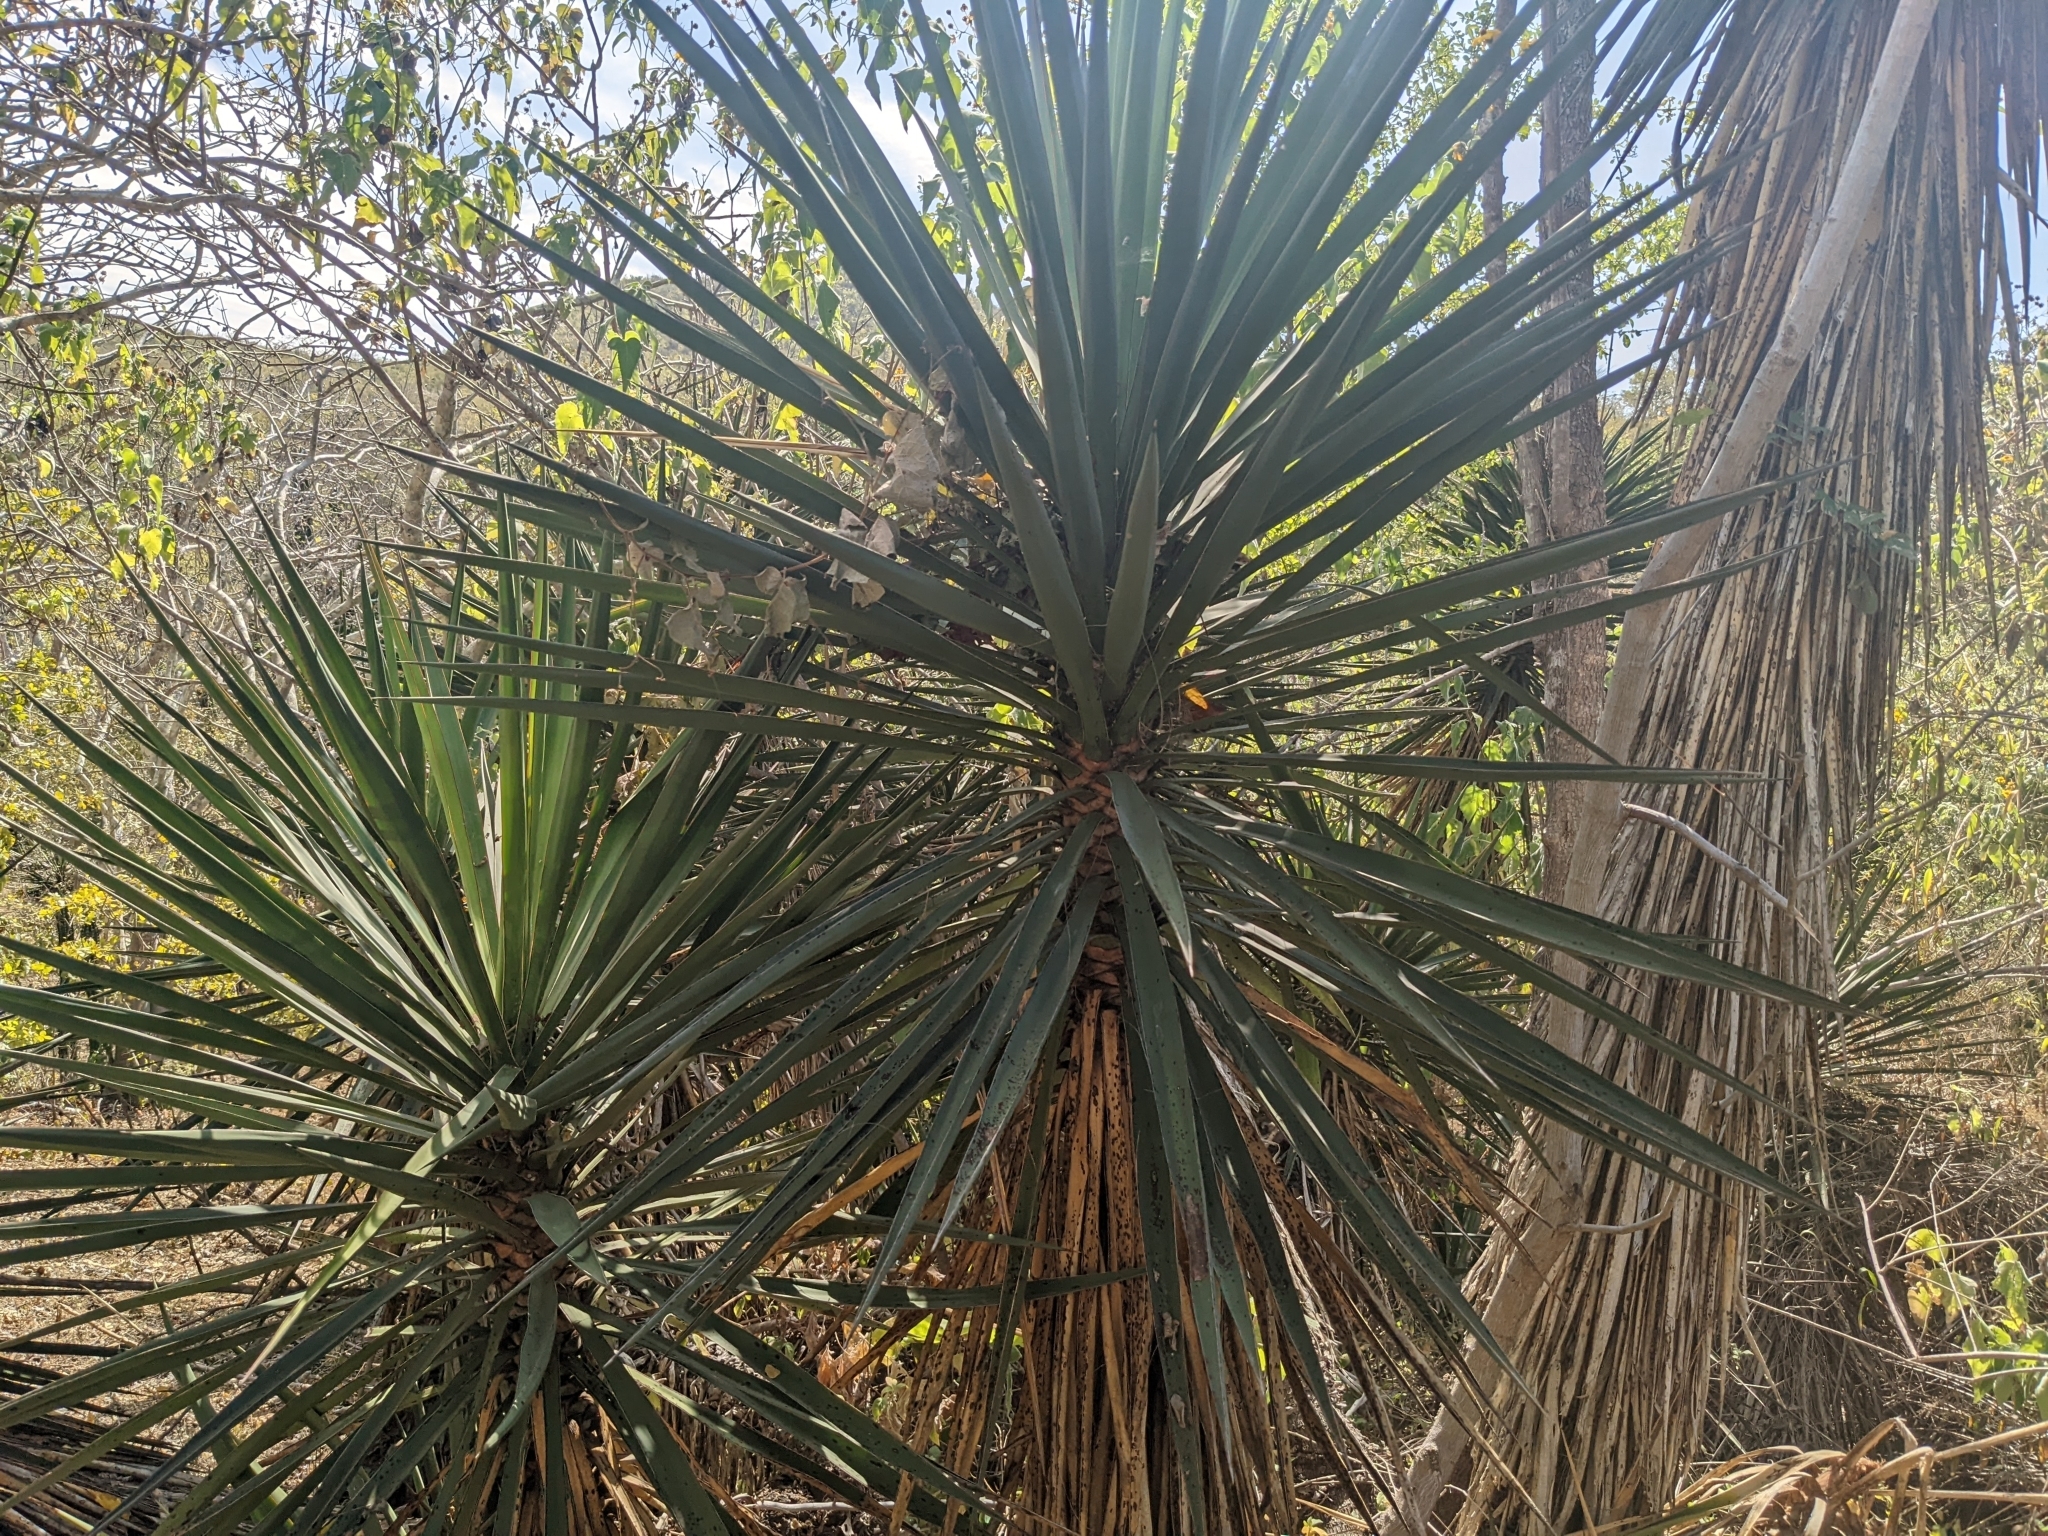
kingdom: Plantae
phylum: Tracheophyta
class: Liliopsida
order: Asparagales
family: Asparagaceae
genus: Yucca
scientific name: Yucca capensis
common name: Cape region yucca
